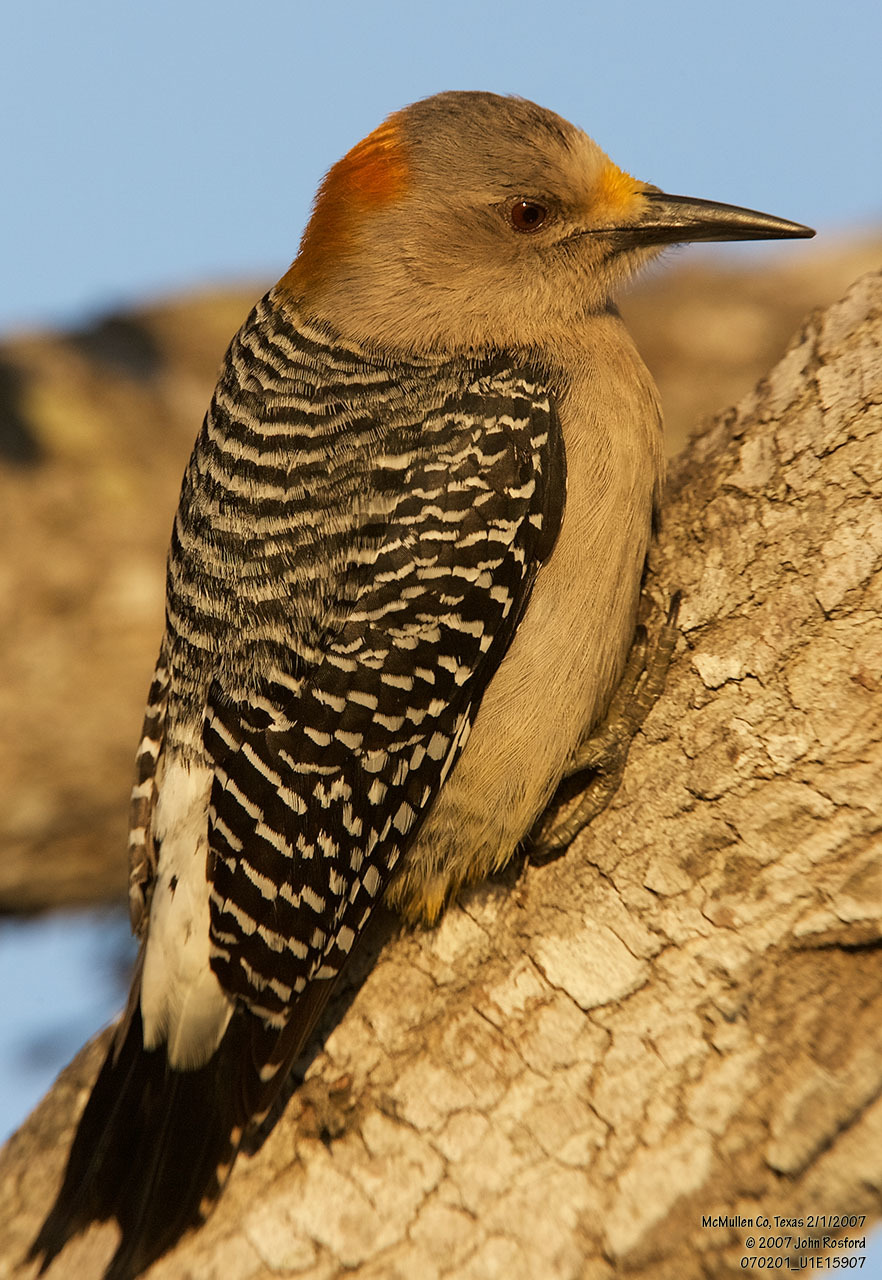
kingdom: Animalia
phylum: Chordata
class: Aves
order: Piciformes
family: Picidae
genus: Melanerpes
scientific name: Melanerpes aurifrons
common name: Golden-fronted woodpecker
